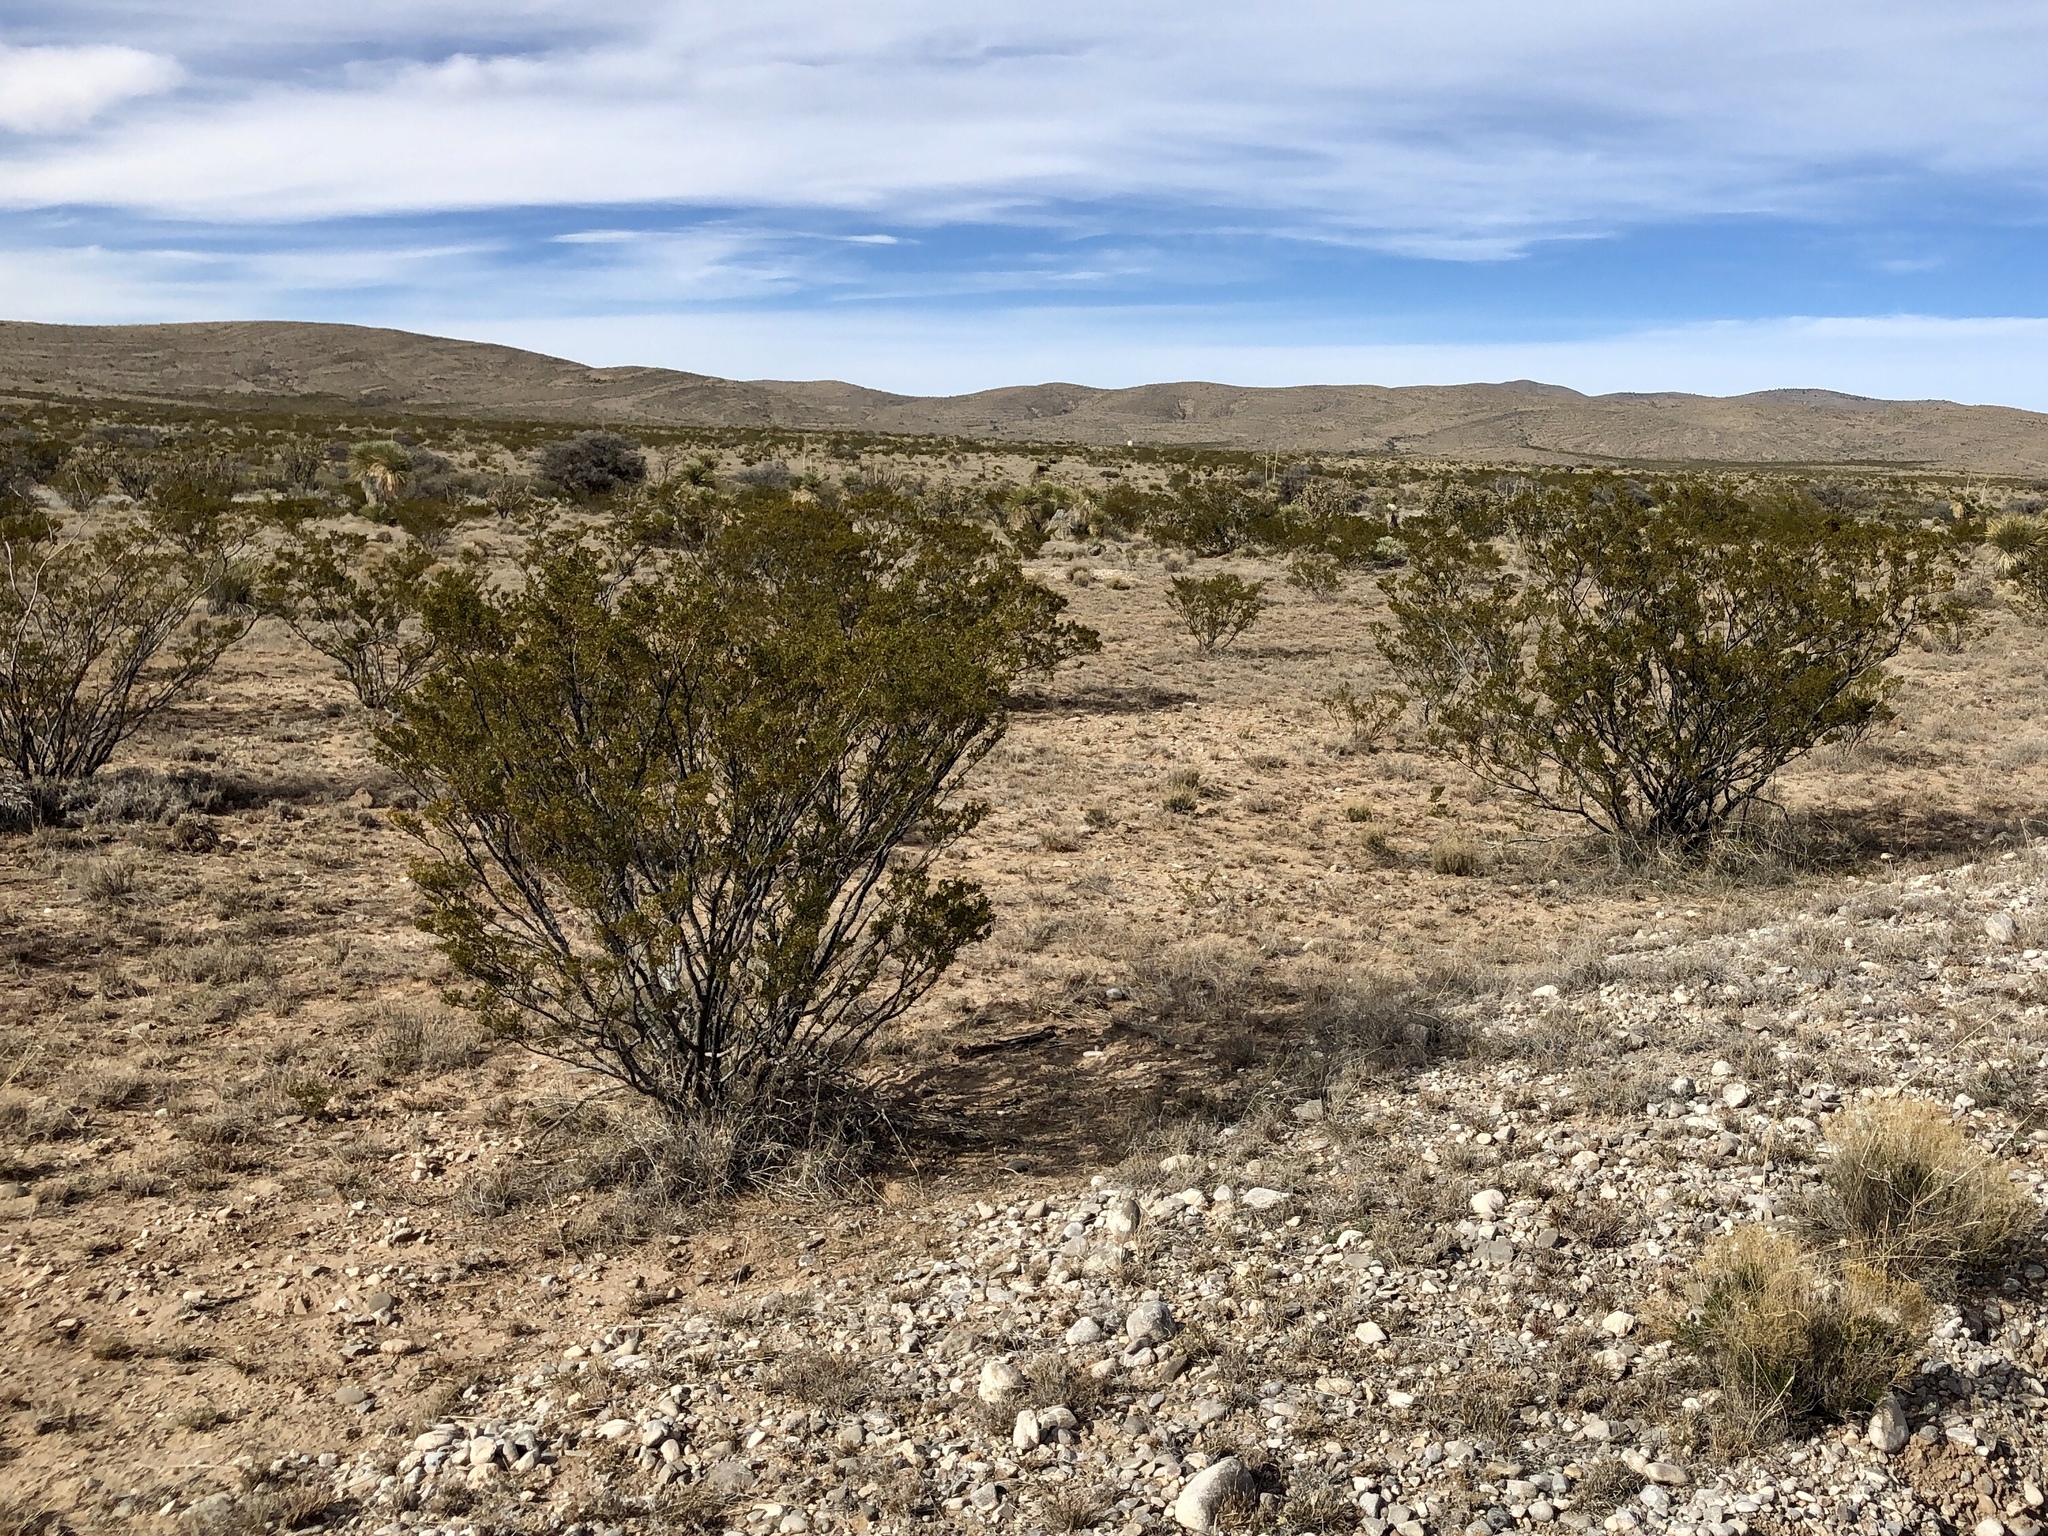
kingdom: Plantae
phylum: Tracheophyta
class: Magnoliopsida
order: Zygophyllales
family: Zygophyllaceae
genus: Larrea
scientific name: Larrea tridentata
